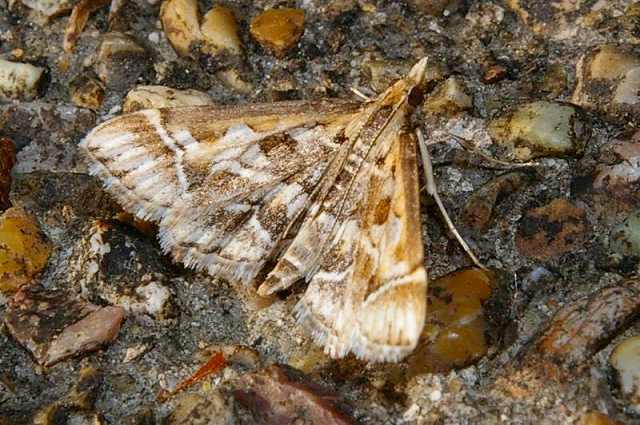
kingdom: Animalia
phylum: Arthropoda
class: Insecta
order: Lepidoptera
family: Crambidae
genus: Diasemia
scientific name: Diasemia reticularis
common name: Lettered china-mark
